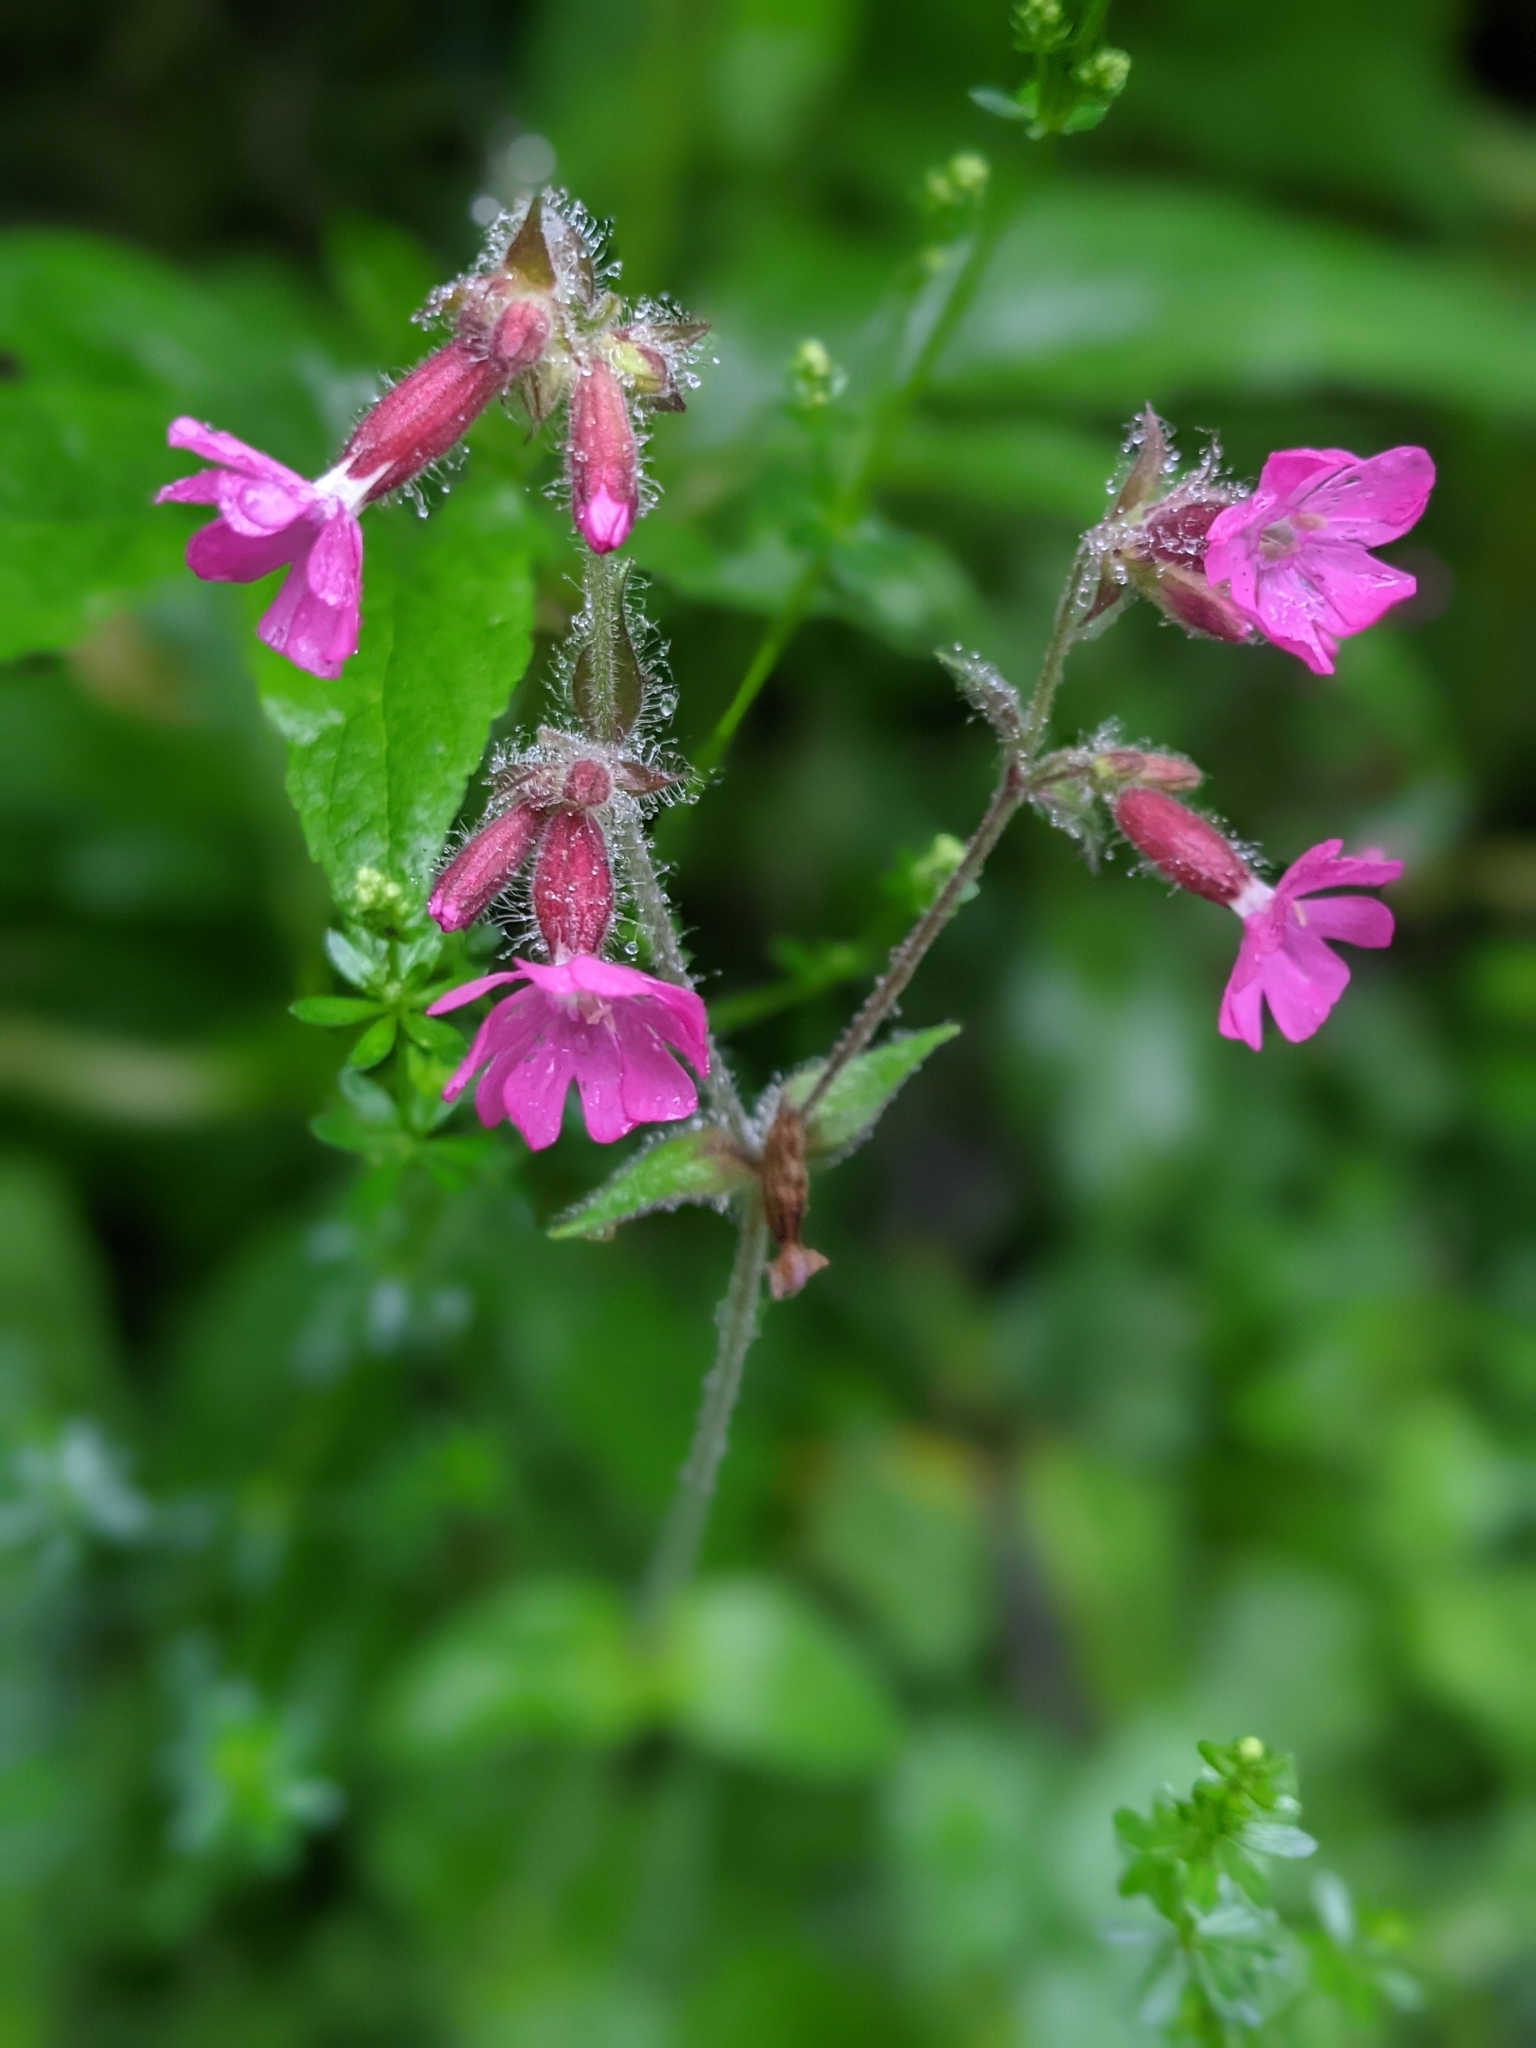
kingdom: Plantae
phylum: Tracheophyta
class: Magnoliopsida
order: Caryophyllales
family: Caryophyllaceae
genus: Silene
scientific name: Silene dioica
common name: Red campion
